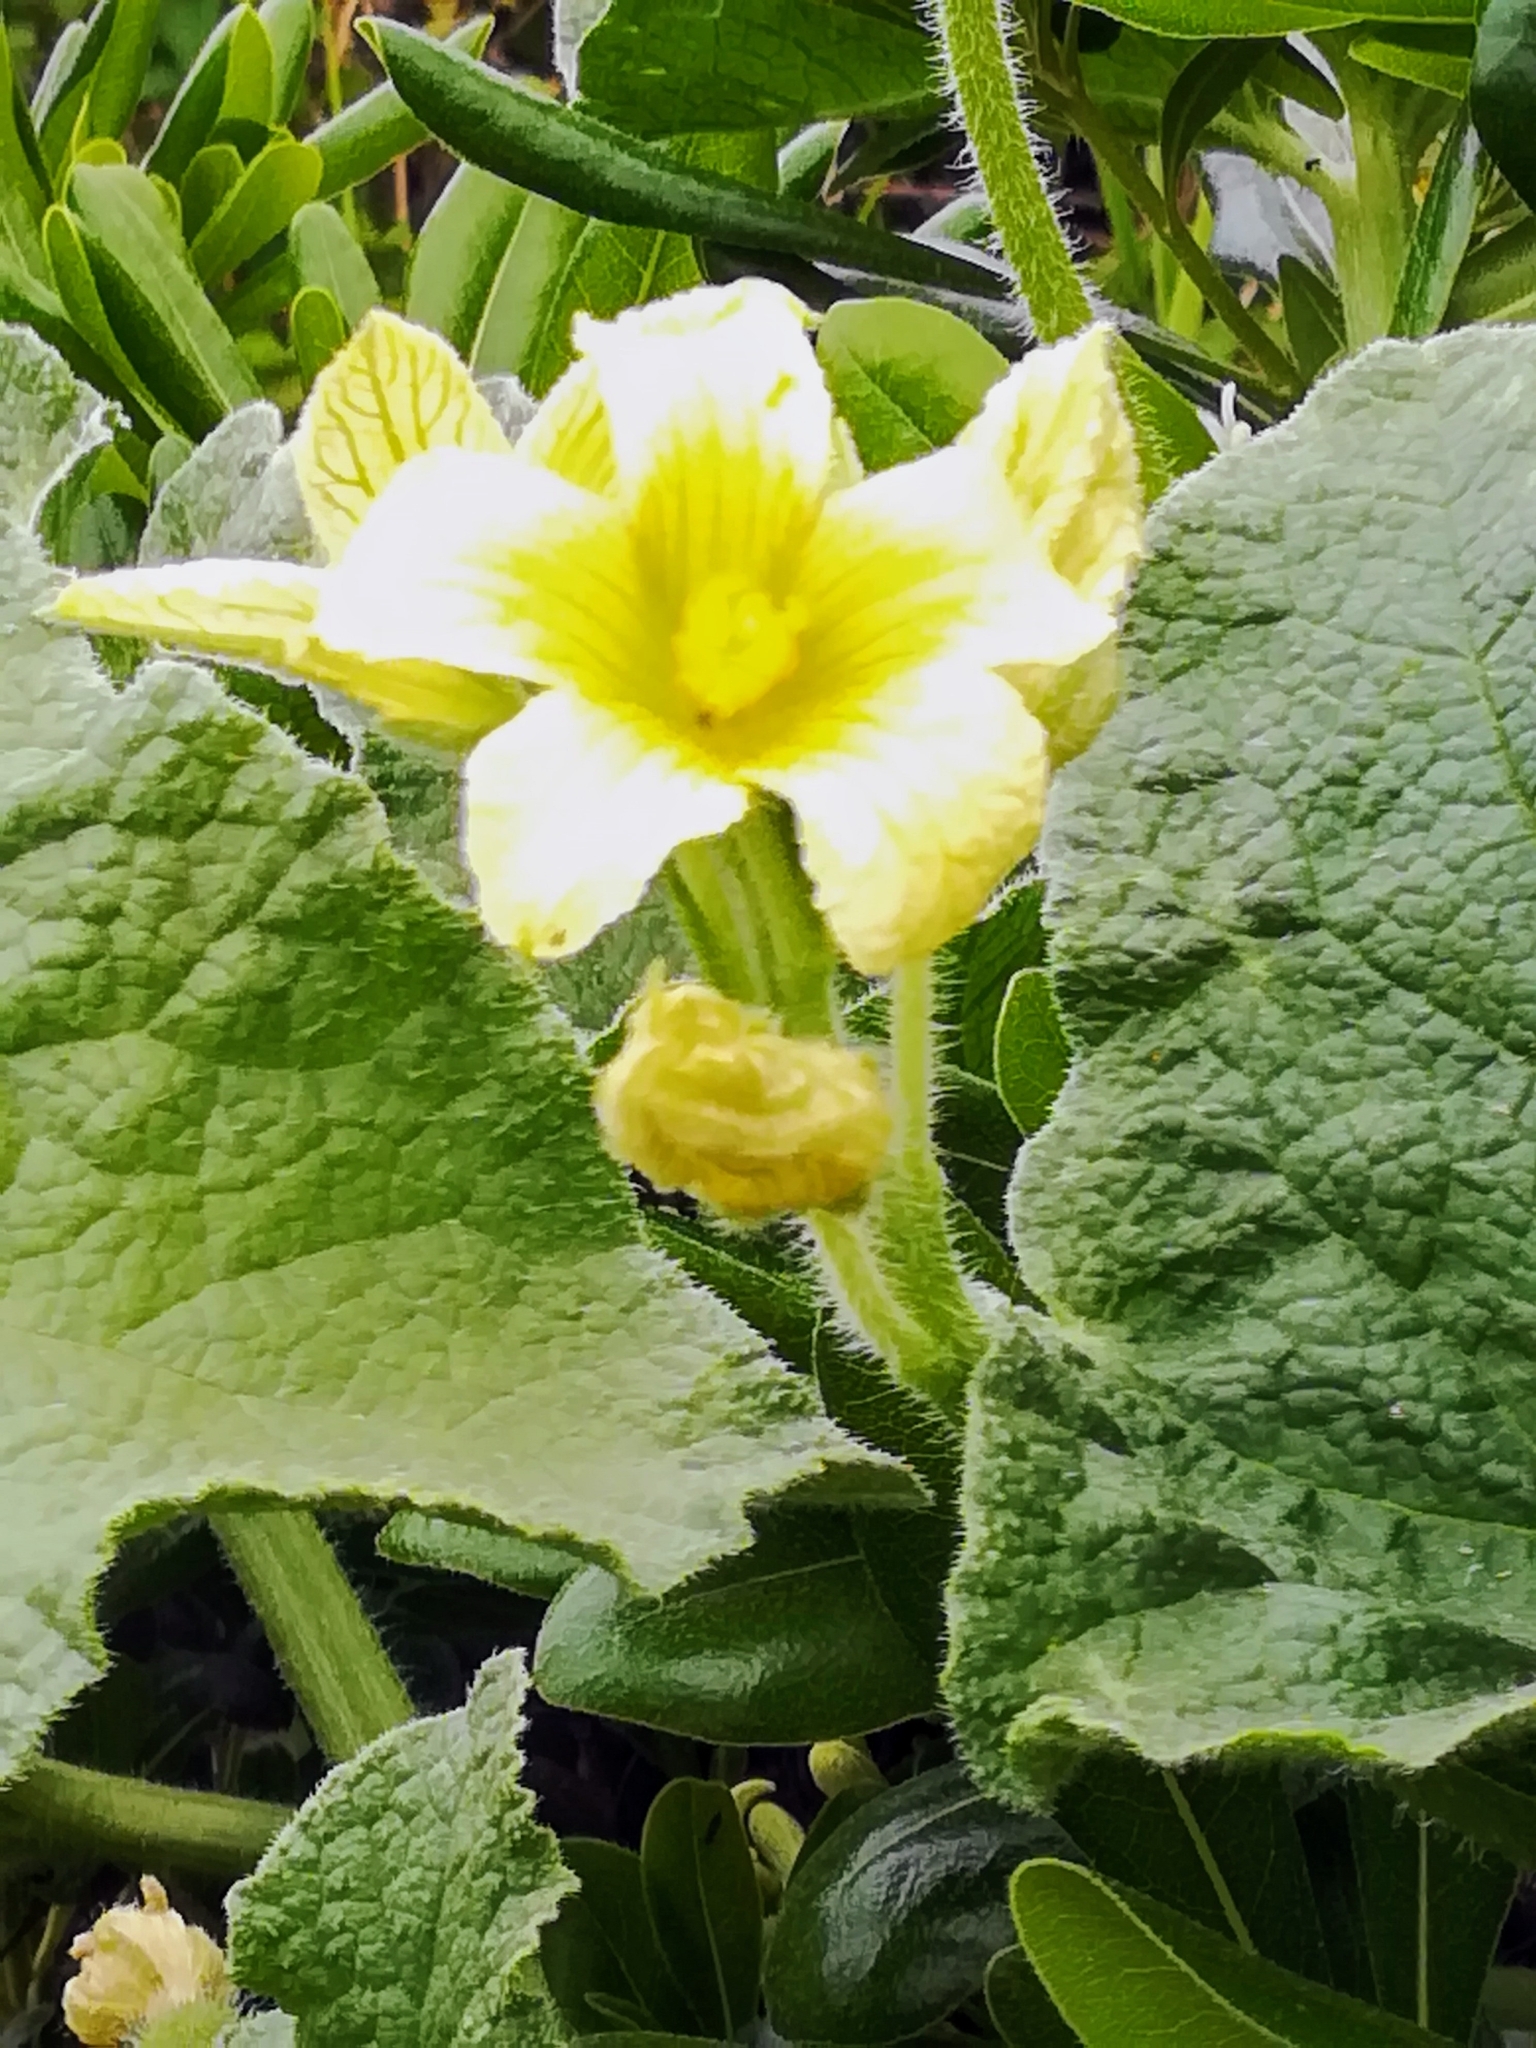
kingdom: Plantae
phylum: Tracheophyta
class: Magnoliopsida
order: Cucurbitales
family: Cucurbitaceae
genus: Ecballium
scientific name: Ecballium elaterium
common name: Squirting cucumber
